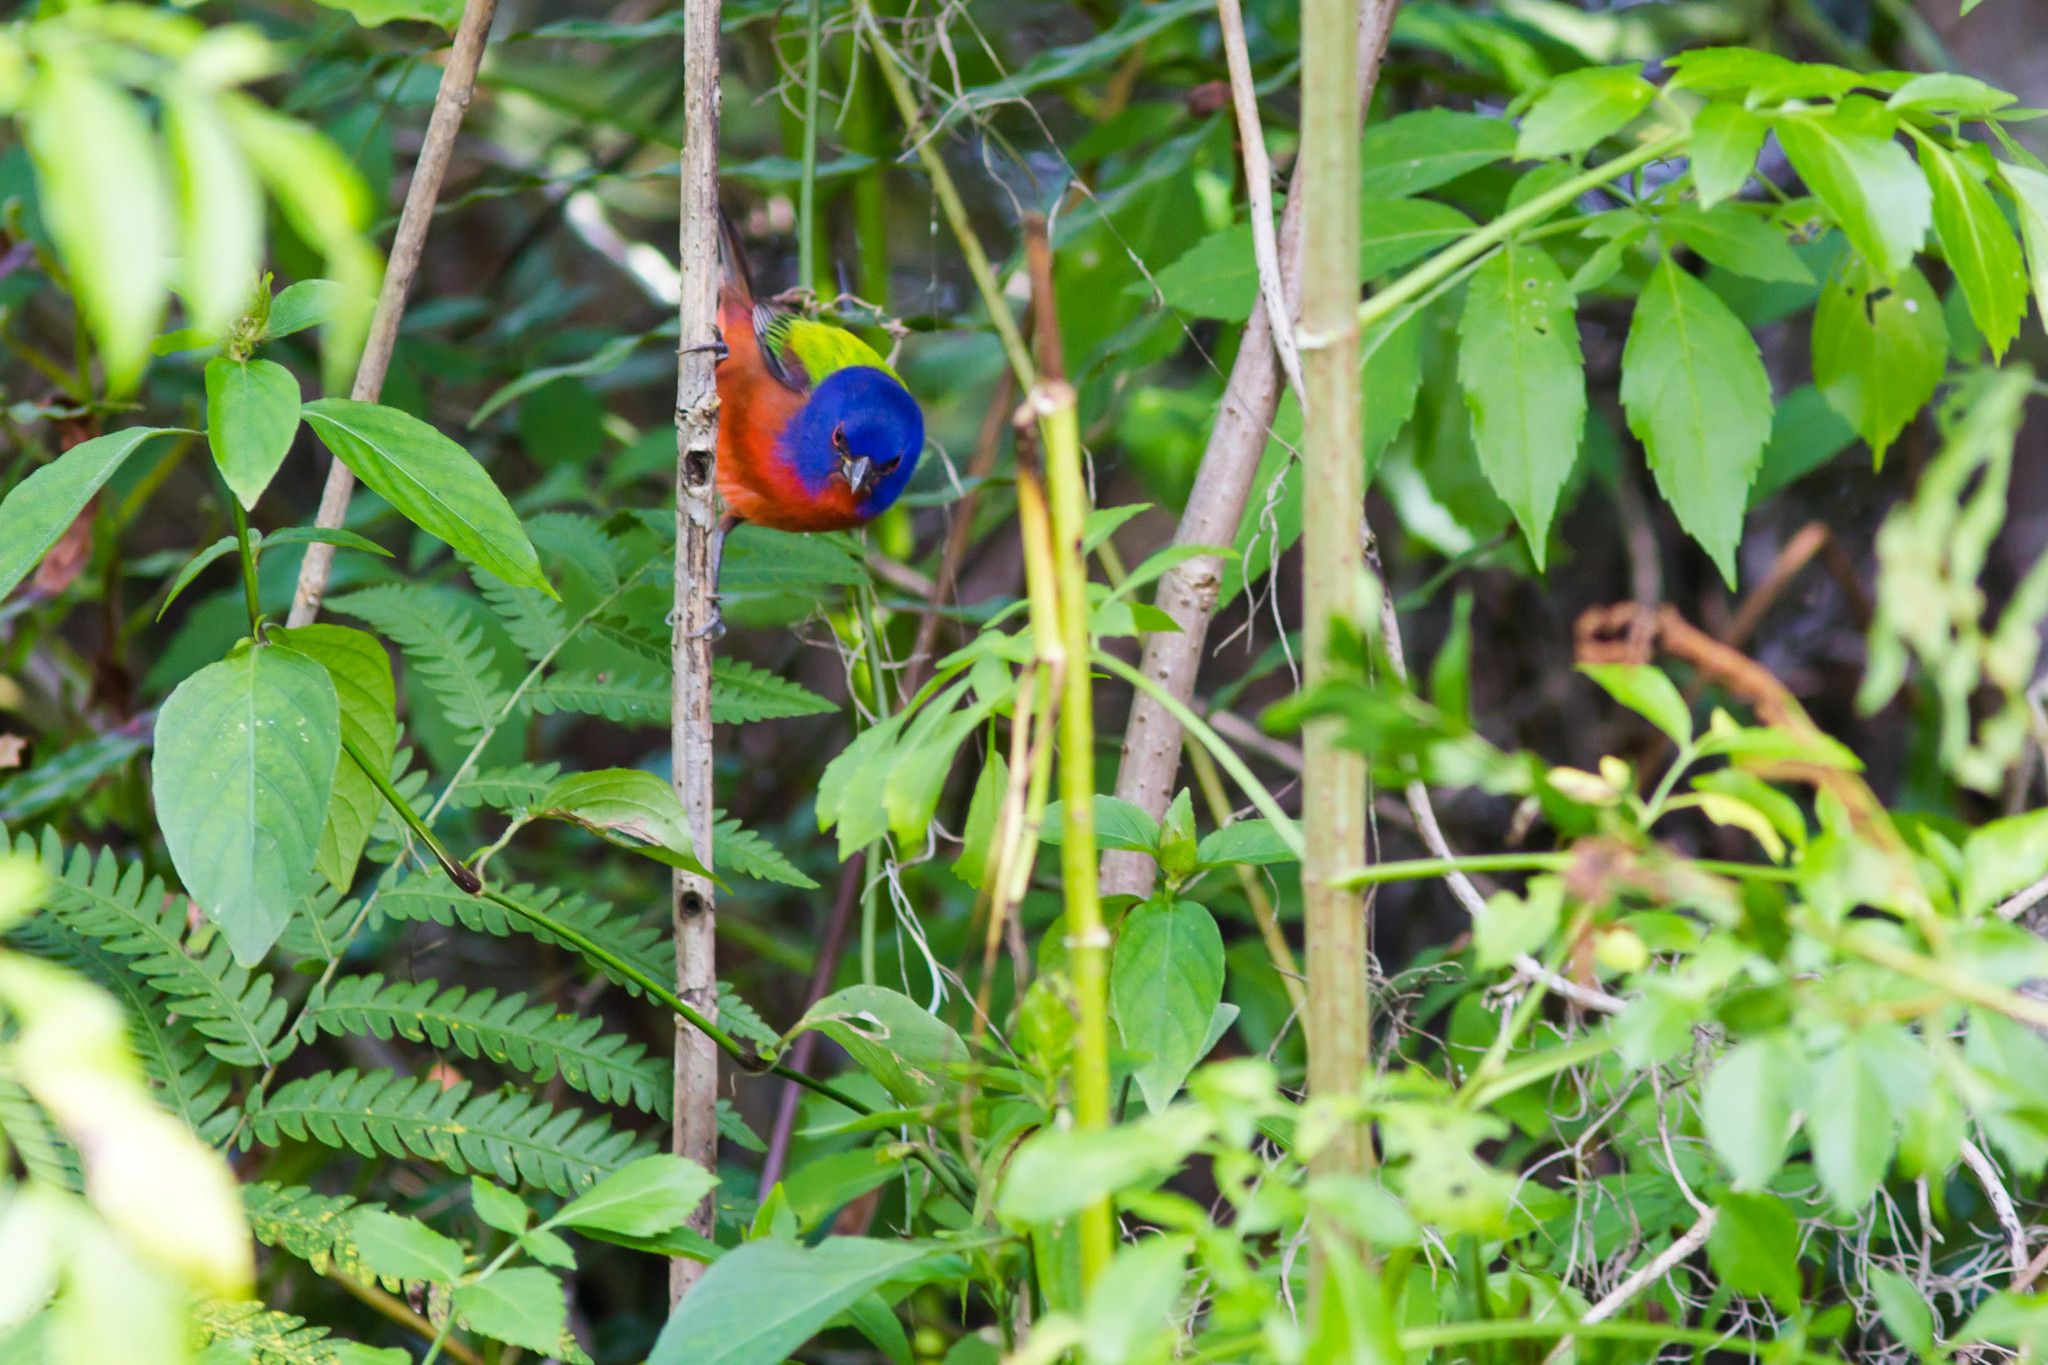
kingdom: Animalia
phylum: Chordata
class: Aves
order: Passeriformes
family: Cardinalidae
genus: Passerina
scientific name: Passerina ciris
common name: Painted bunting
